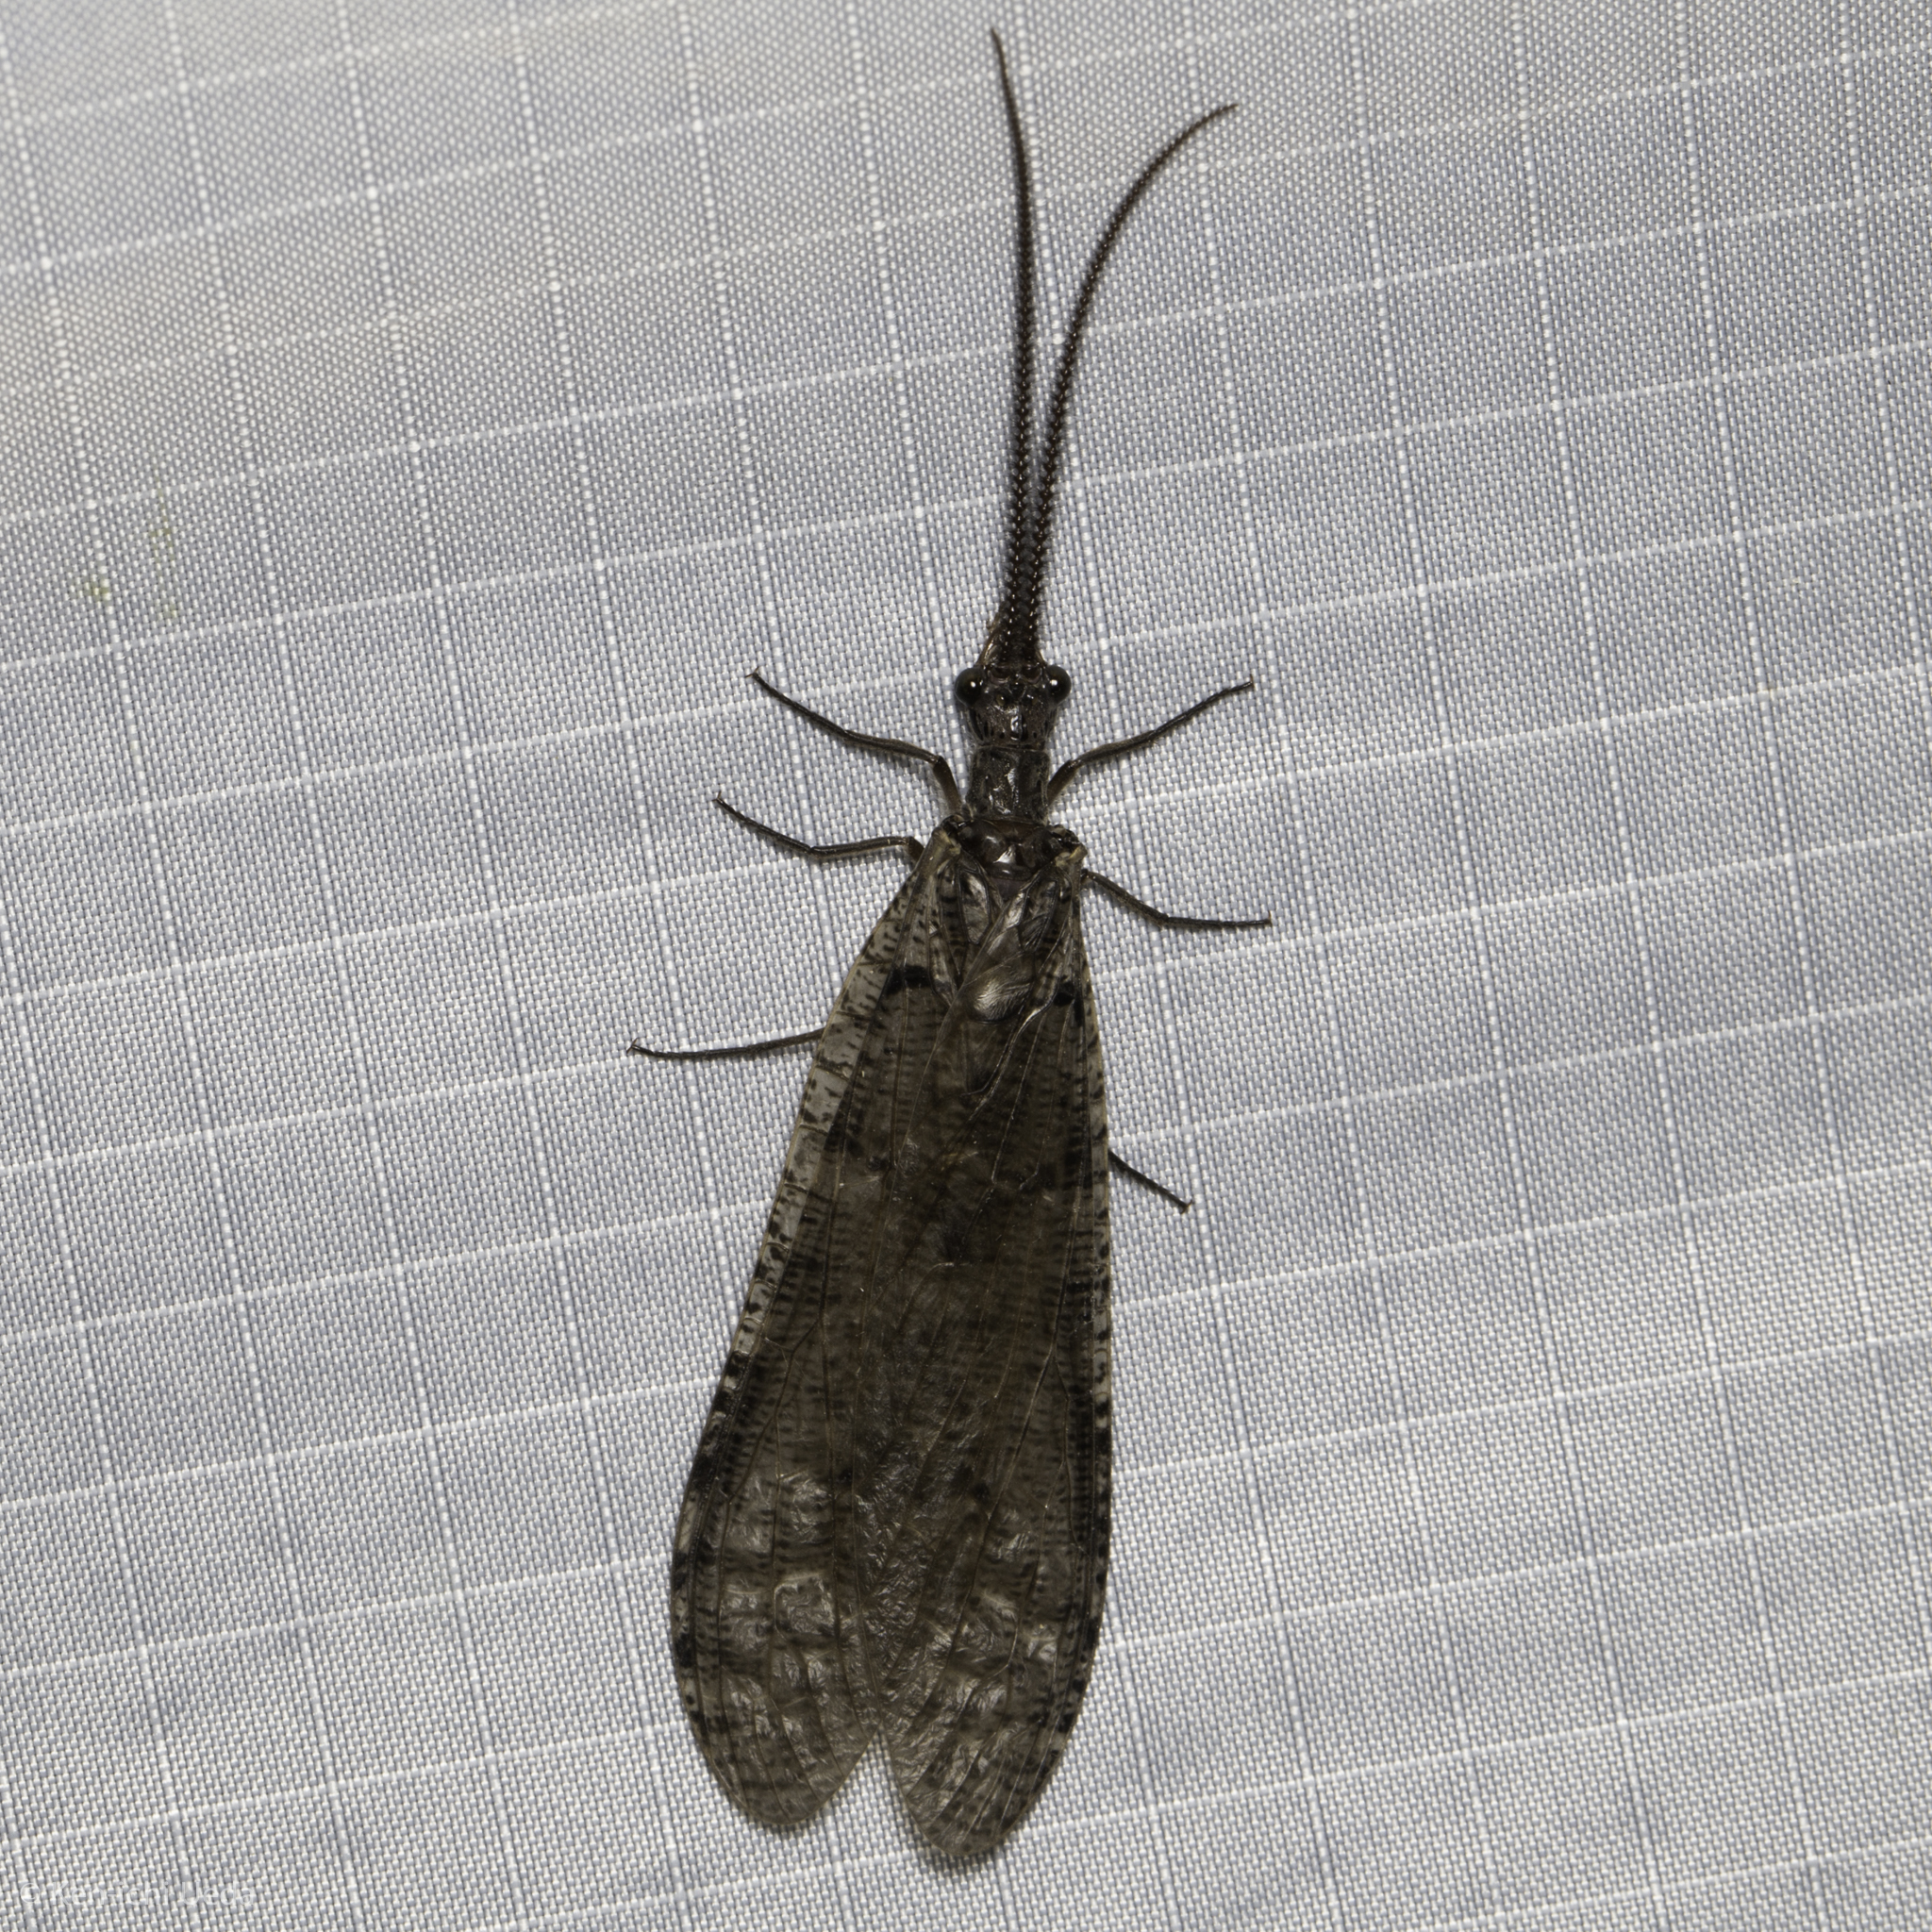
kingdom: Animalia
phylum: Arthropoda
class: Insecta
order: Megaloptera
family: Corydalidae
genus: Neohermes
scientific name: Neohermes filicornis
